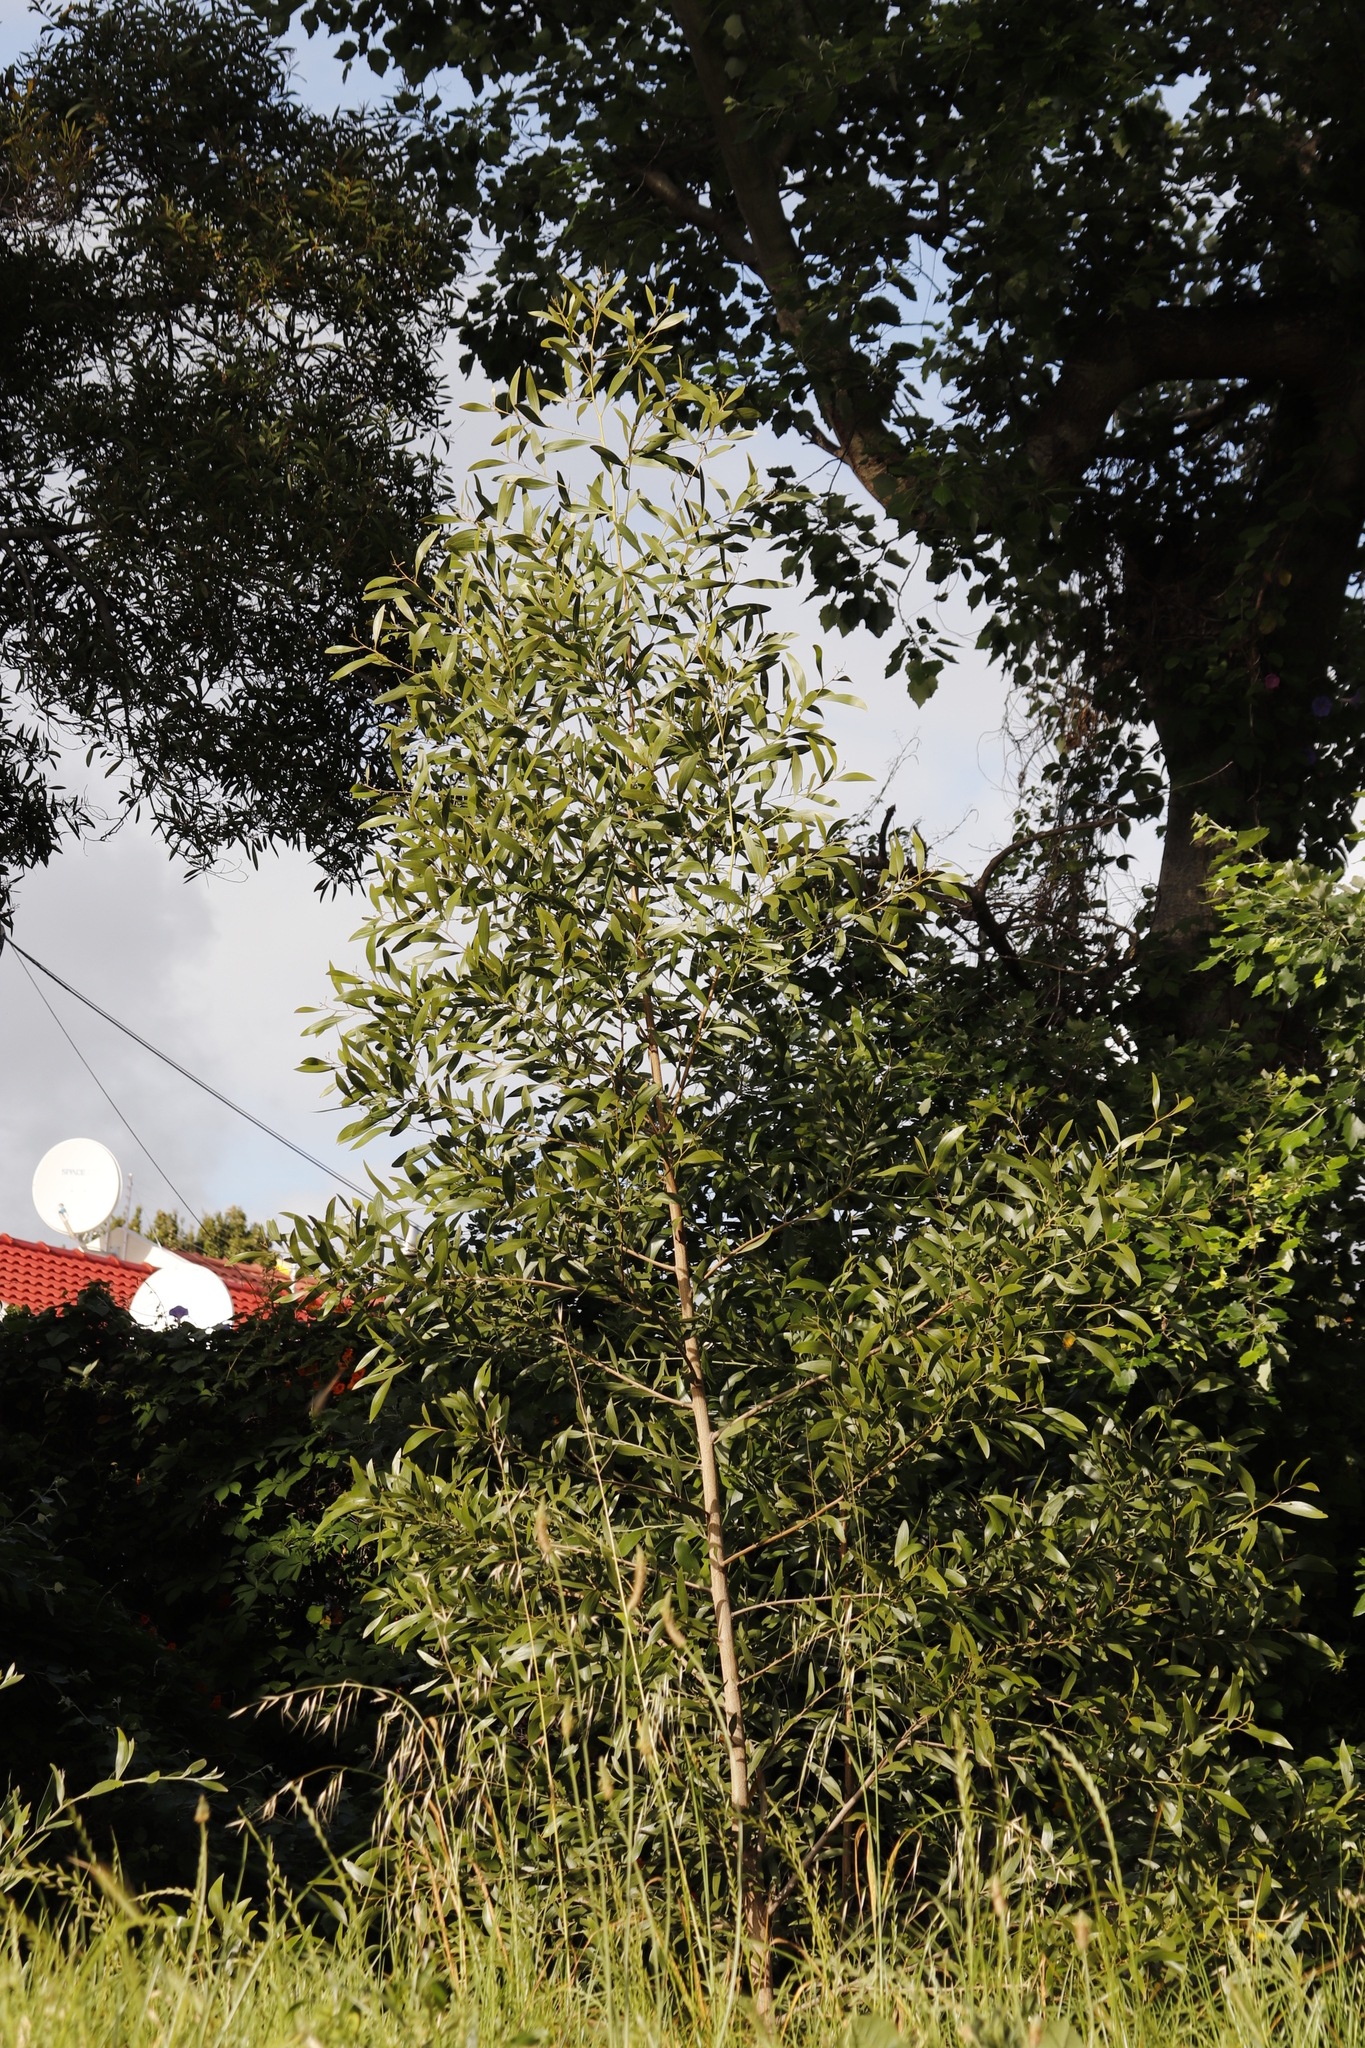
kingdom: Plantae
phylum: Tracheophyta
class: Magnoliopsida
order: Fabales
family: Fabaceae
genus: Acacia
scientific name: Acacia melanoxylon
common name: Blackwood
